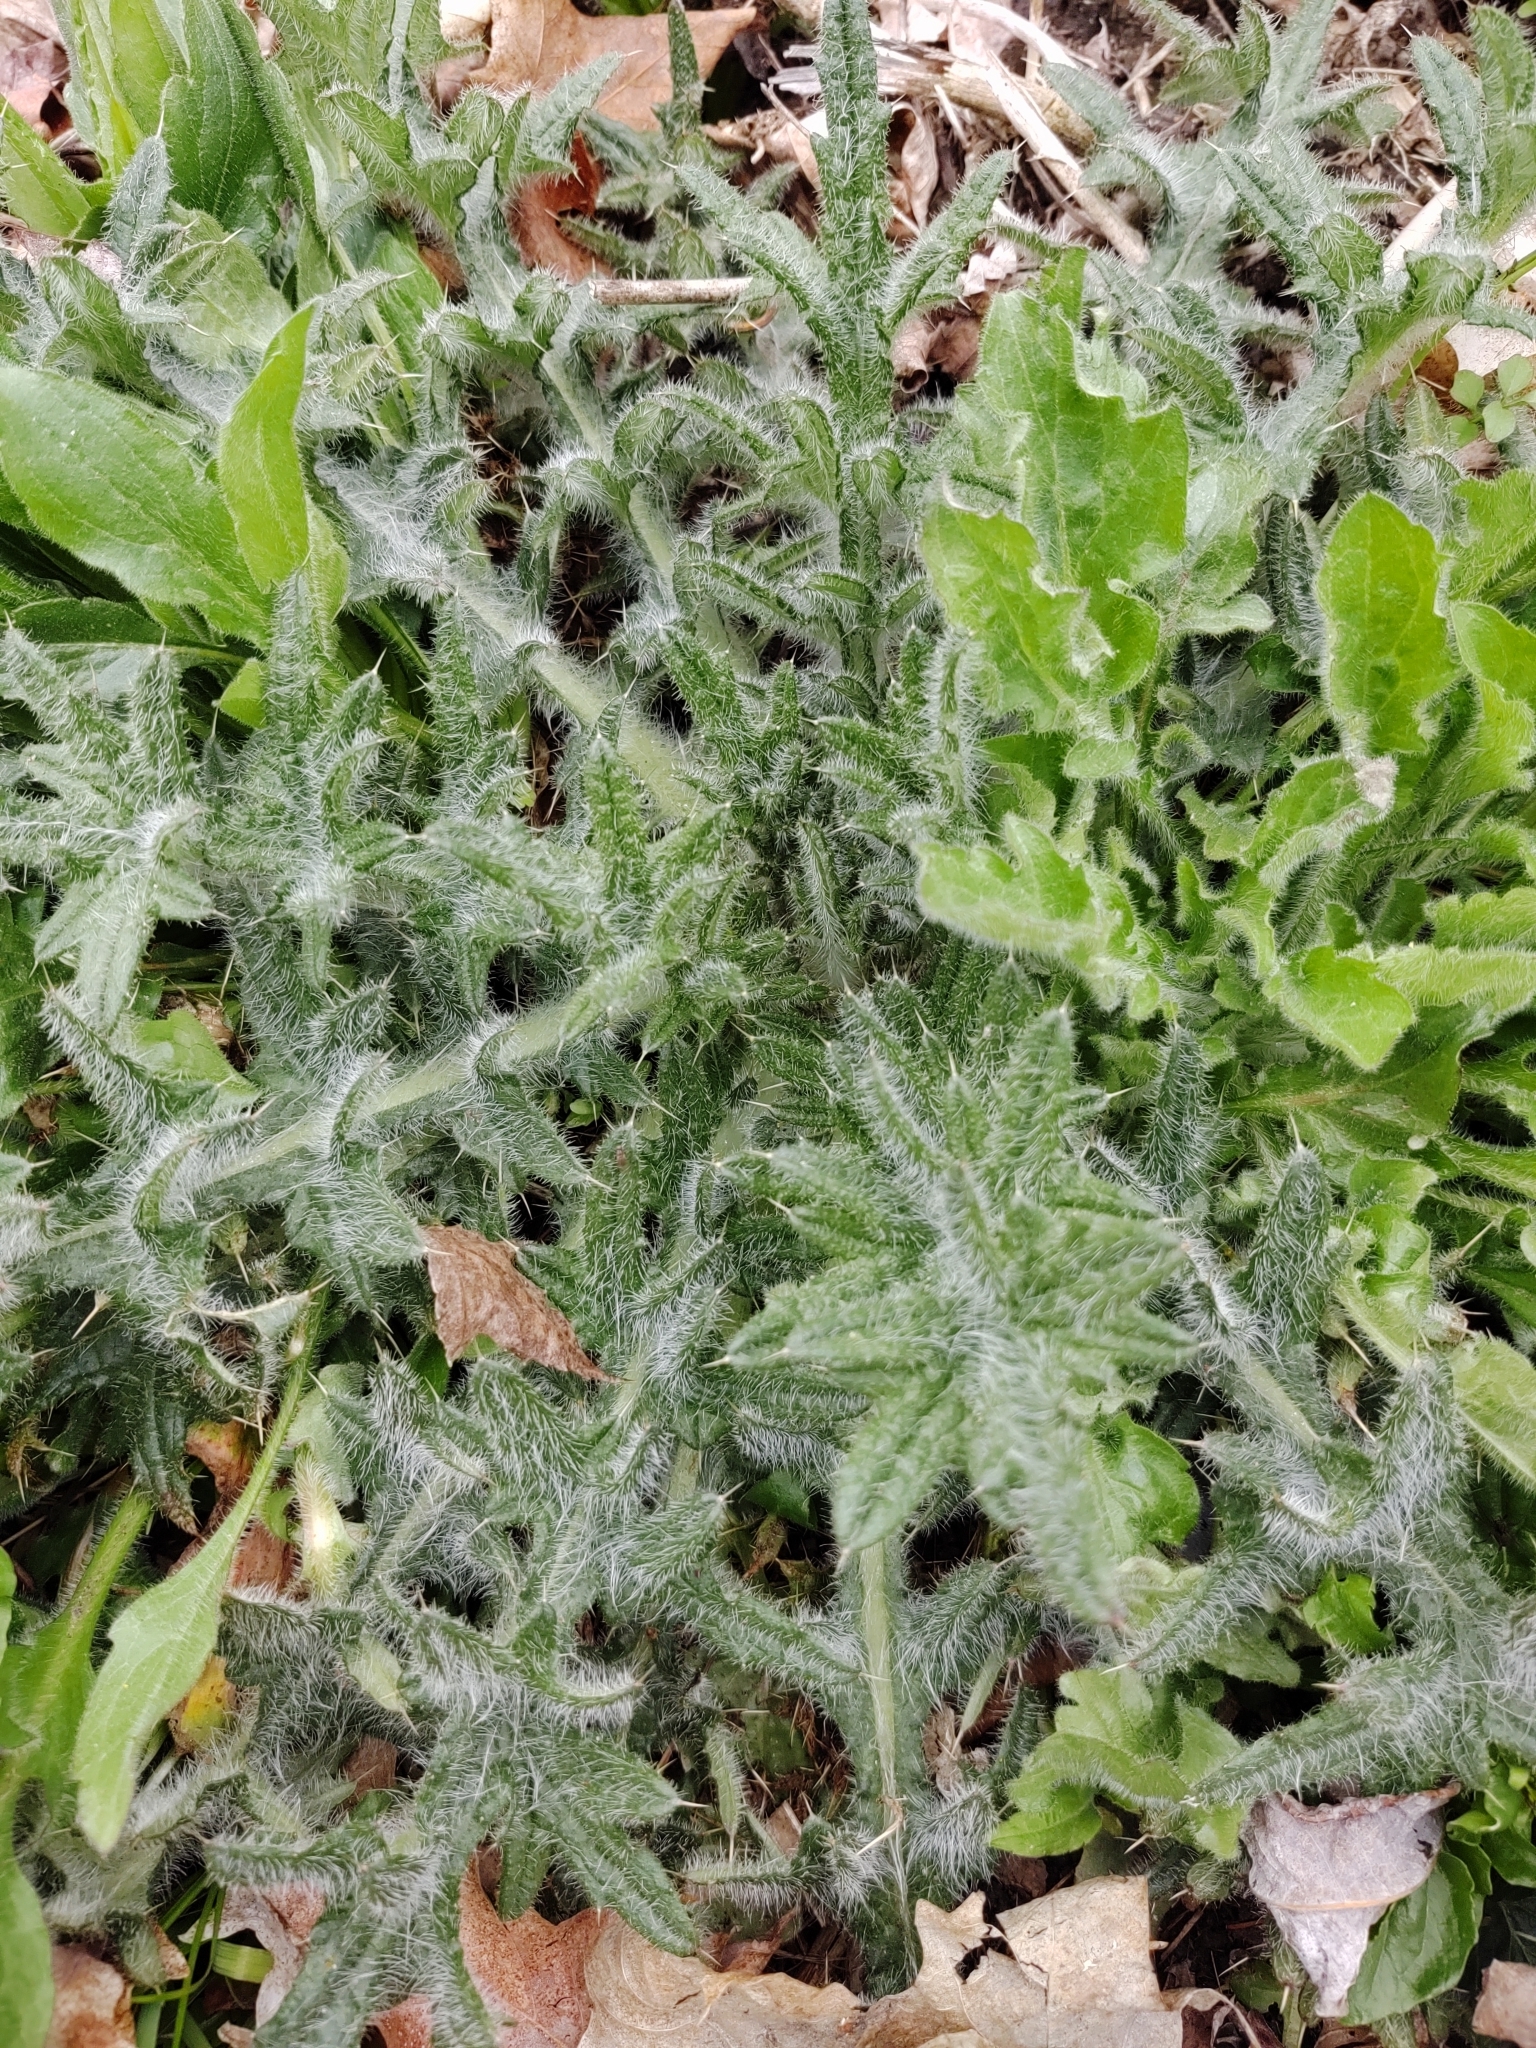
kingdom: Plantae
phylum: Tracheophyta
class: Magnoliopsida
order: Asterales
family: Asteraceae
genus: Cirsium
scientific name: Cirsium vulgare
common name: Bull thistle
